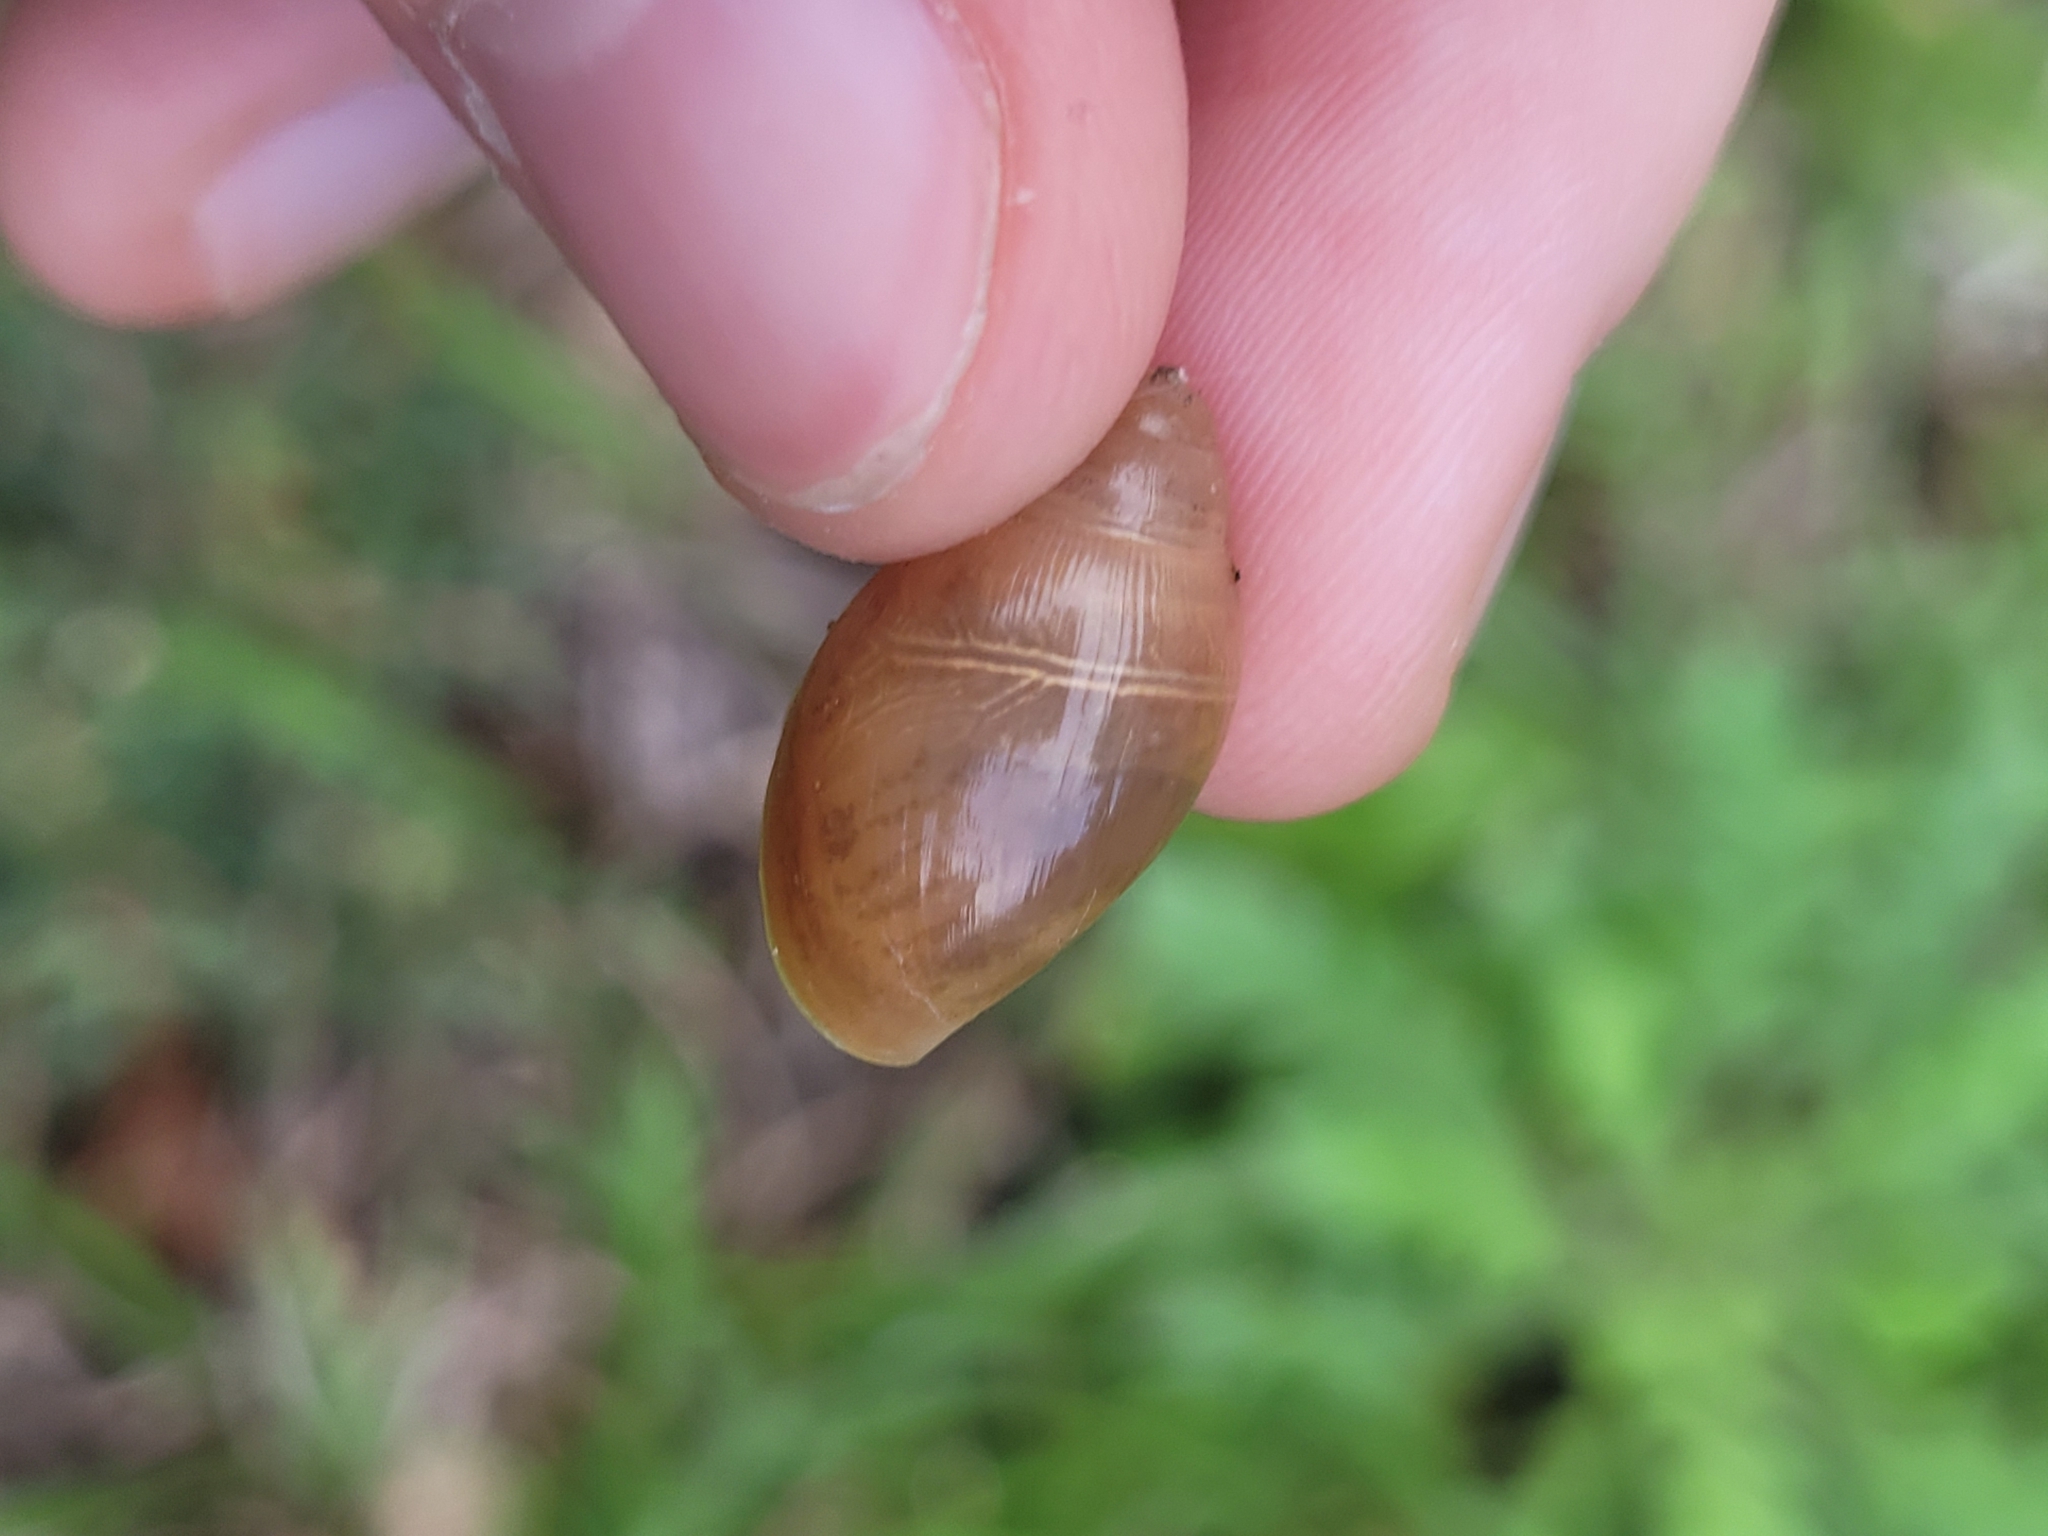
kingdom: Animalia
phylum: Mollusca
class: Gastropoda
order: Stylommatophora
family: Spiraxidae
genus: Euglandina
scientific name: Euglandina rosea
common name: Rosy wolfsnail
